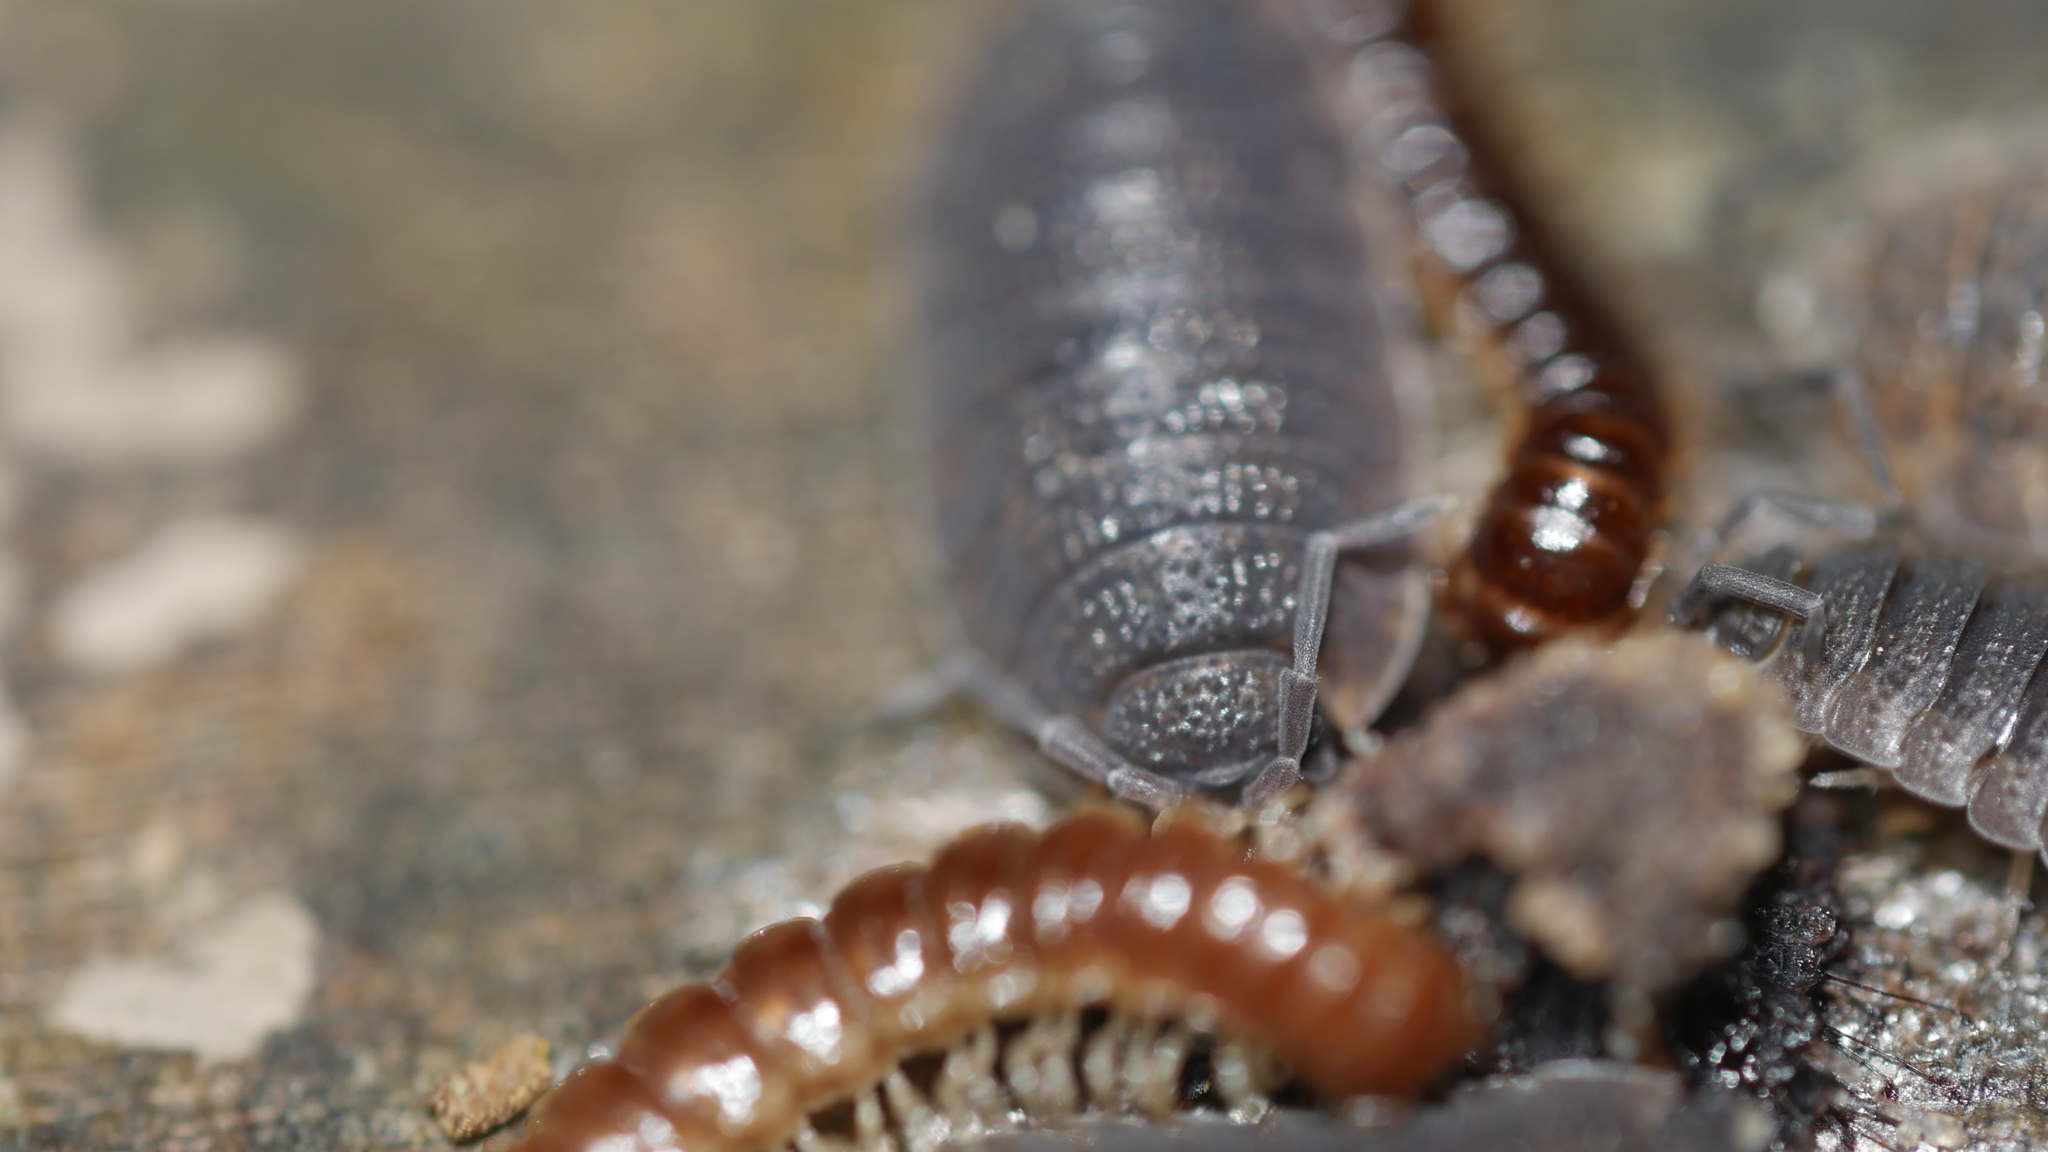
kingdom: Animalia
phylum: Arthropoda
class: Malacostraca
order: Isopoda
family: Porcellionidae
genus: Porcellio
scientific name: Porcellio scaber
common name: Common rough woodlouse
